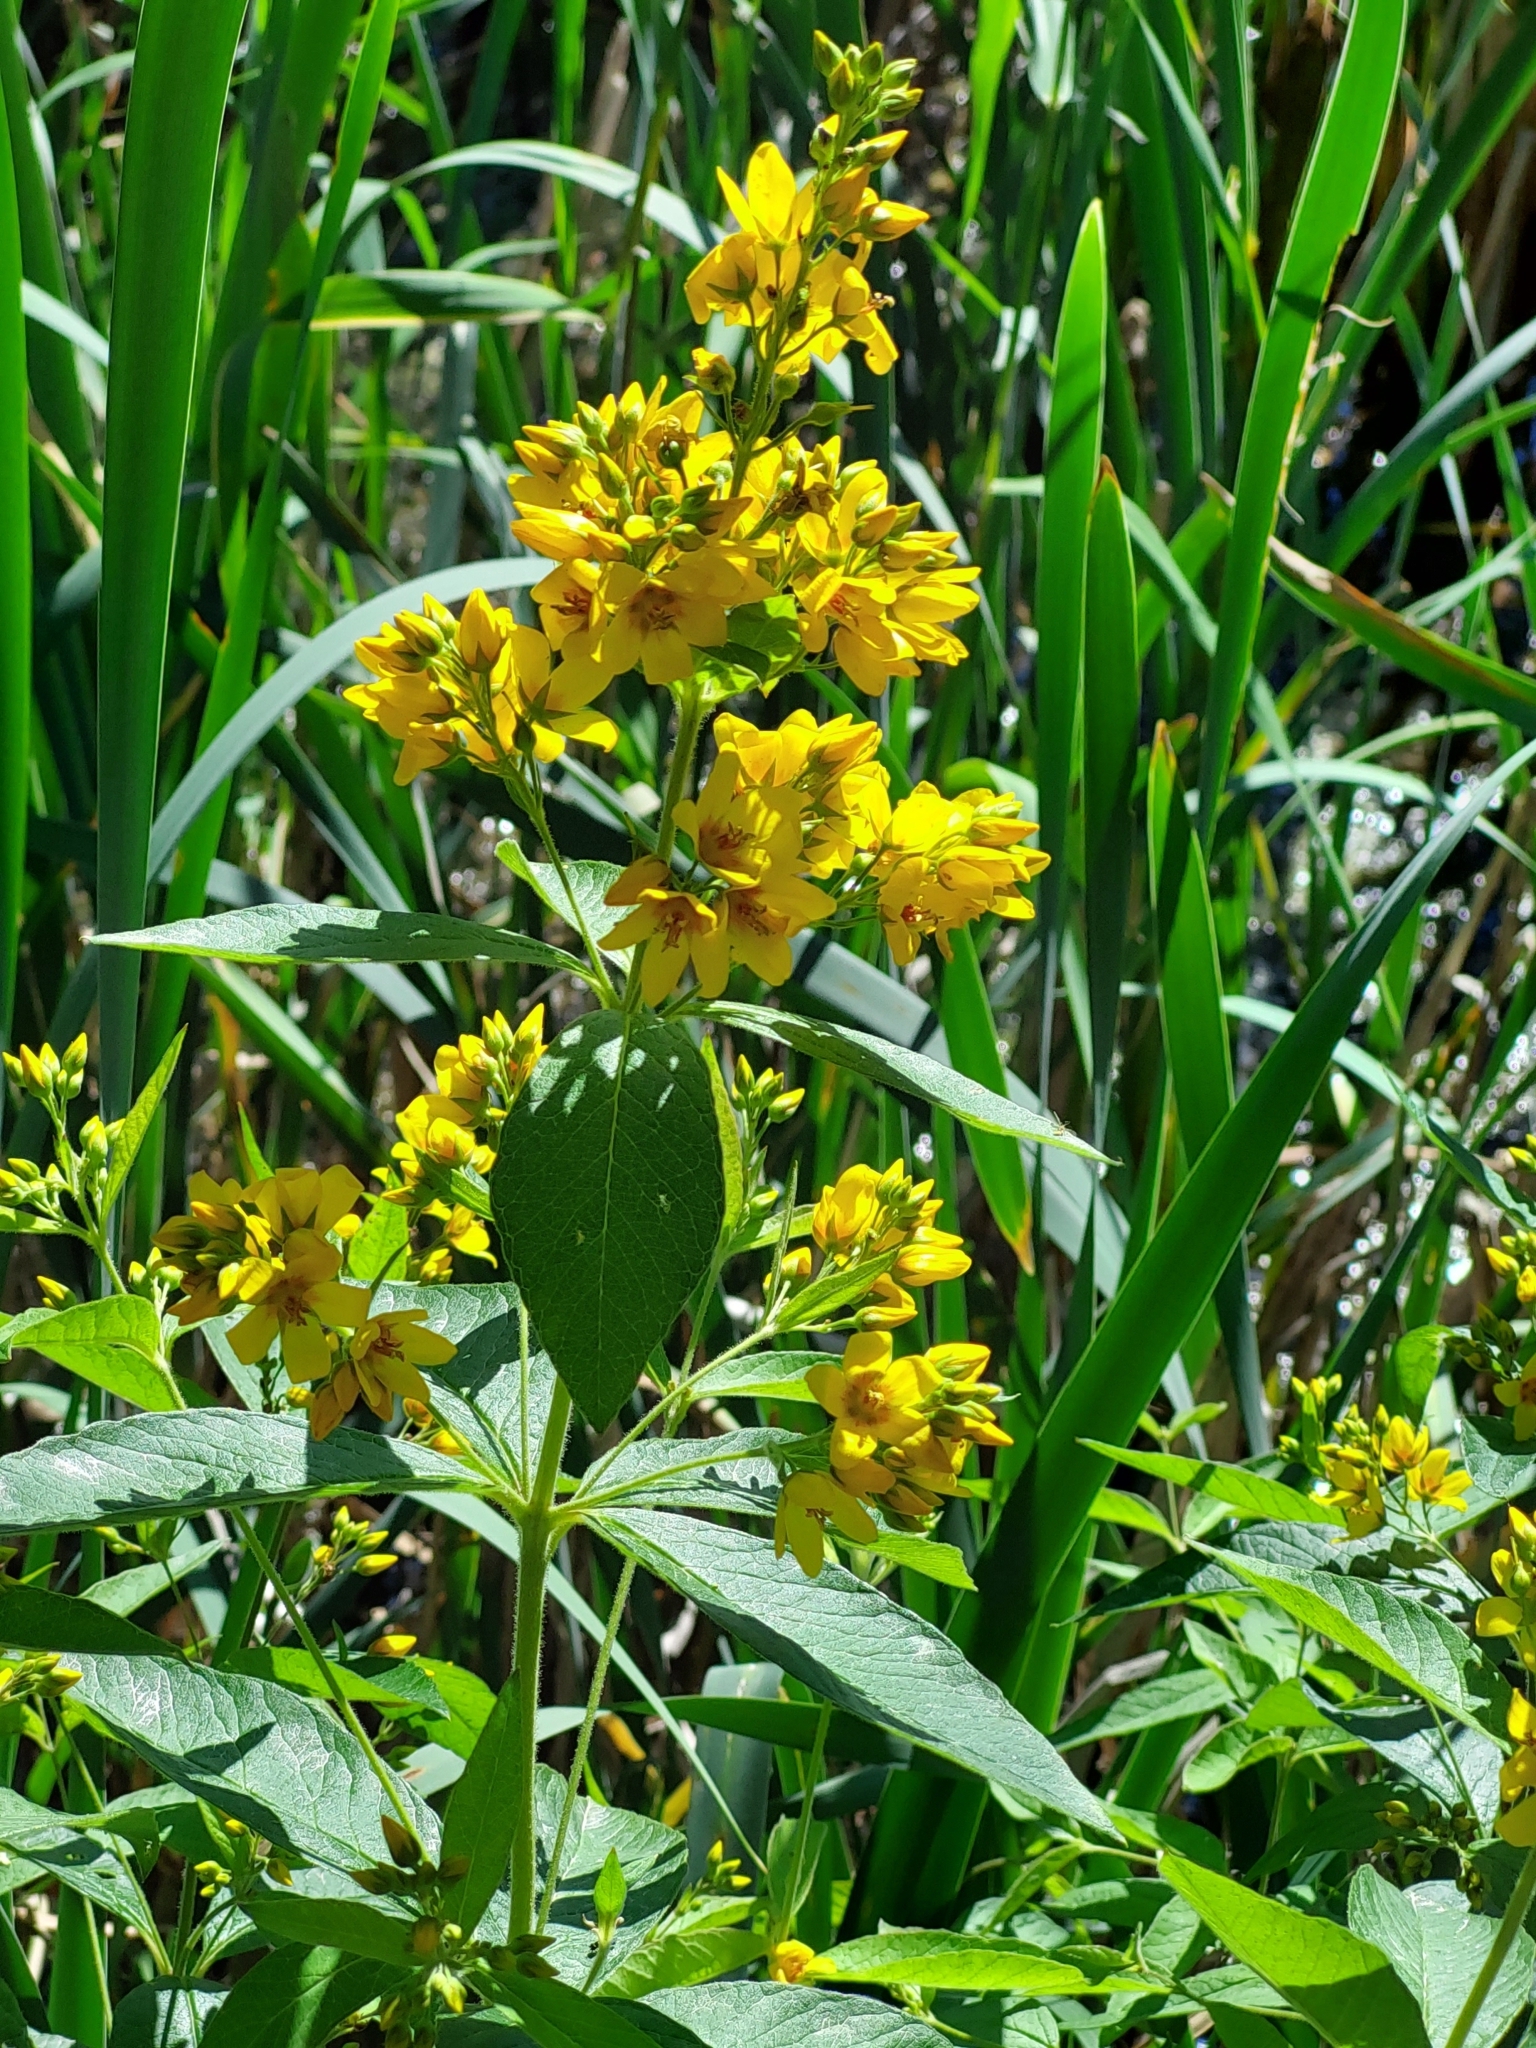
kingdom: Plantae
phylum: Tracheophyta
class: Magnoliopsida
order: Ericales
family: Primulaceae
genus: Lysimachia
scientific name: Lysimachia vulgaris
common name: Yellow loosestrife
